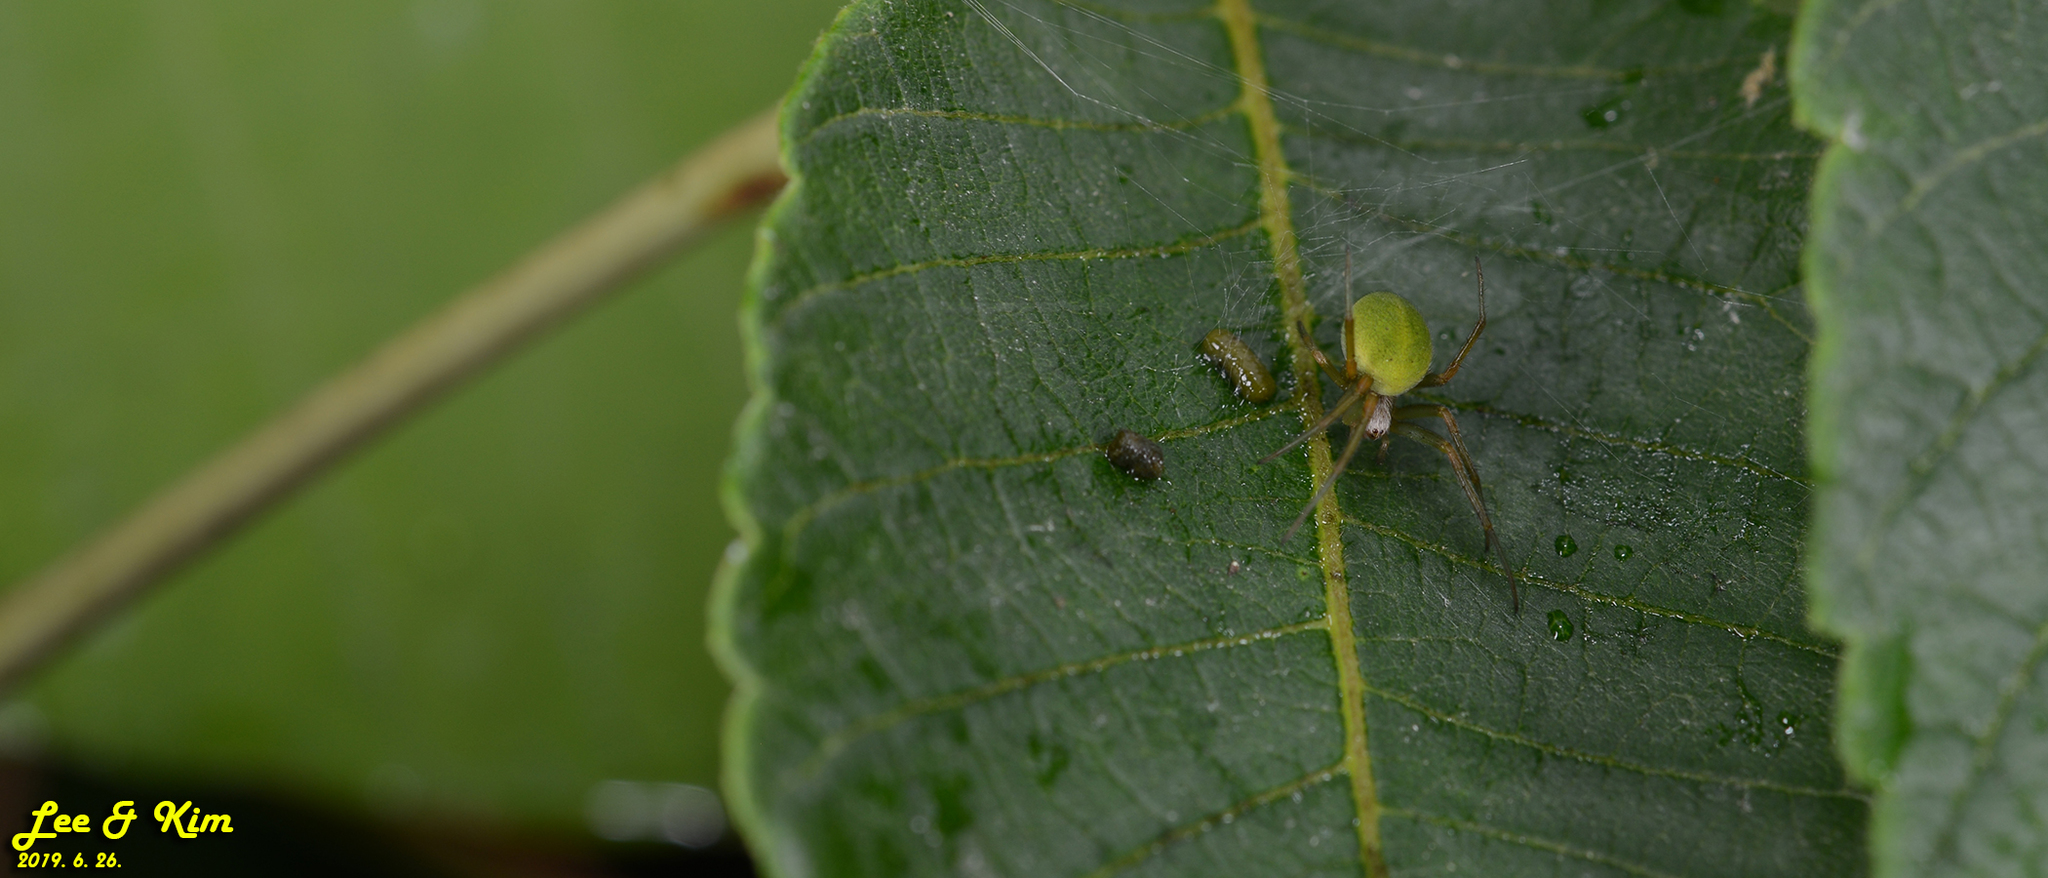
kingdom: Animalia
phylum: Arthropoda
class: Arachnida
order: Araneae
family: Araneidae
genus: Neoscona
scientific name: Neoscona scylloides
